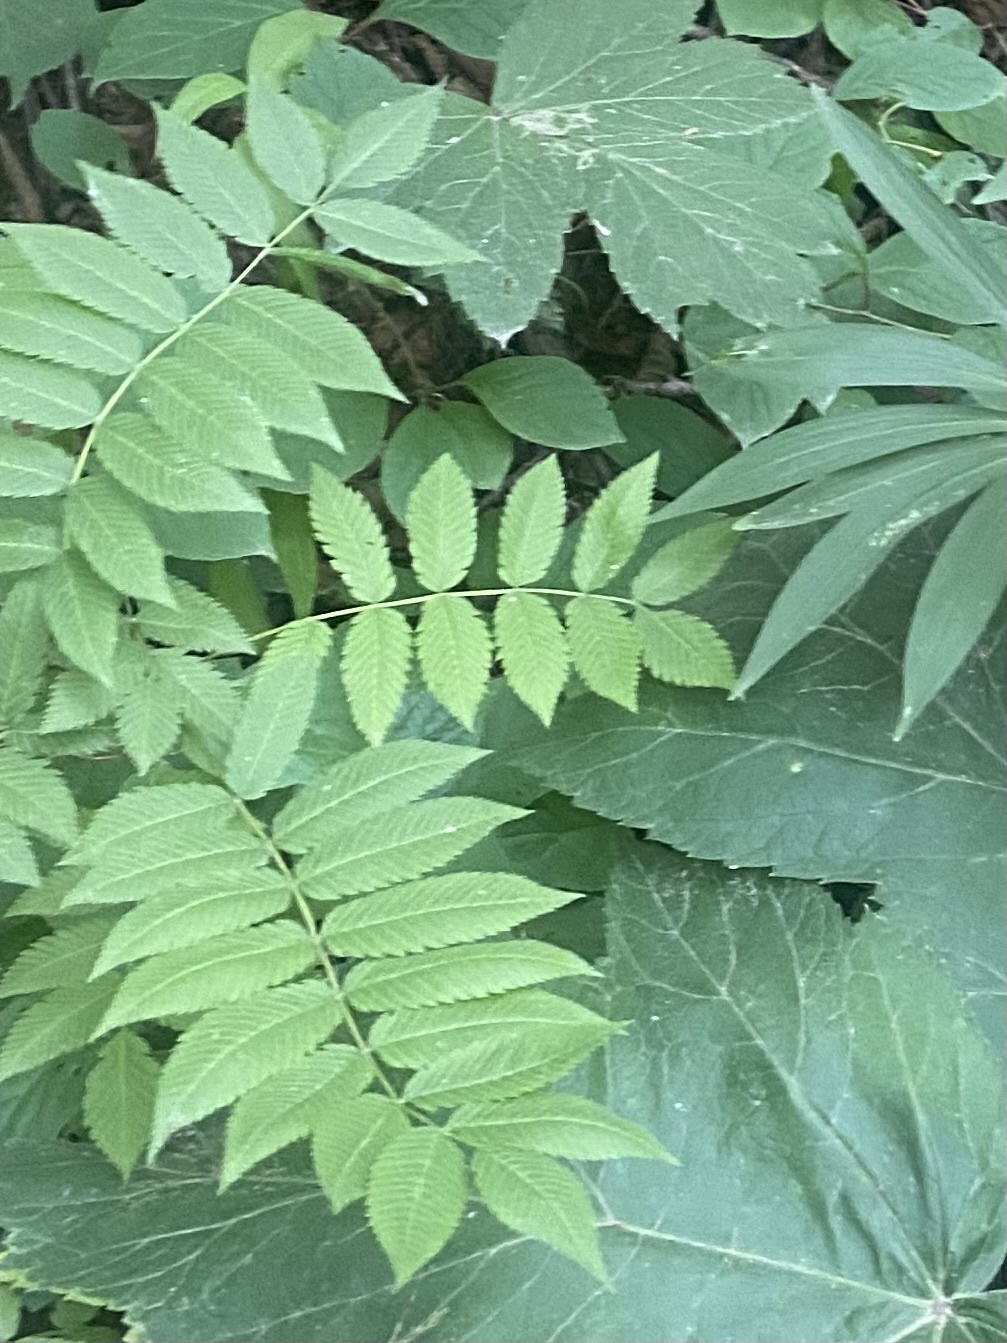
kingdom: Plantae
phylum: Tracheophyta
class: Magnoliopsida
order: Rosales
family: Rosaceae
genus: Sorbaria
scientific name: Sorbaria sorbifolia
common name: False spiraea
